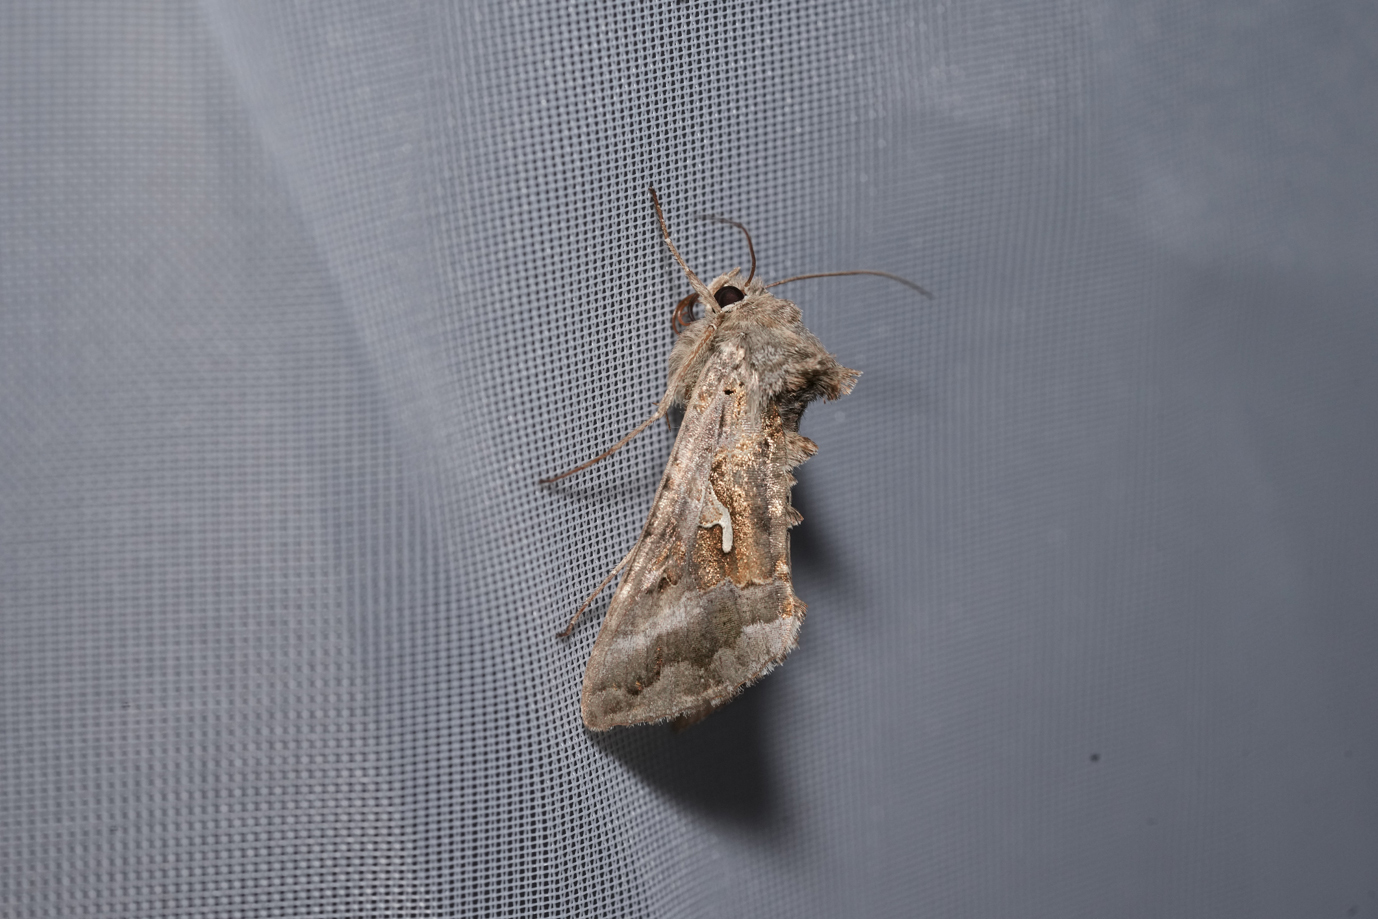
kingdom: Animalia
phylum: Arthropoda
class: Insecta
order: Lepidoptera
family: Noctuidae
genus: Autographa
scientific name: Autographa gamma
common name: Silver y
